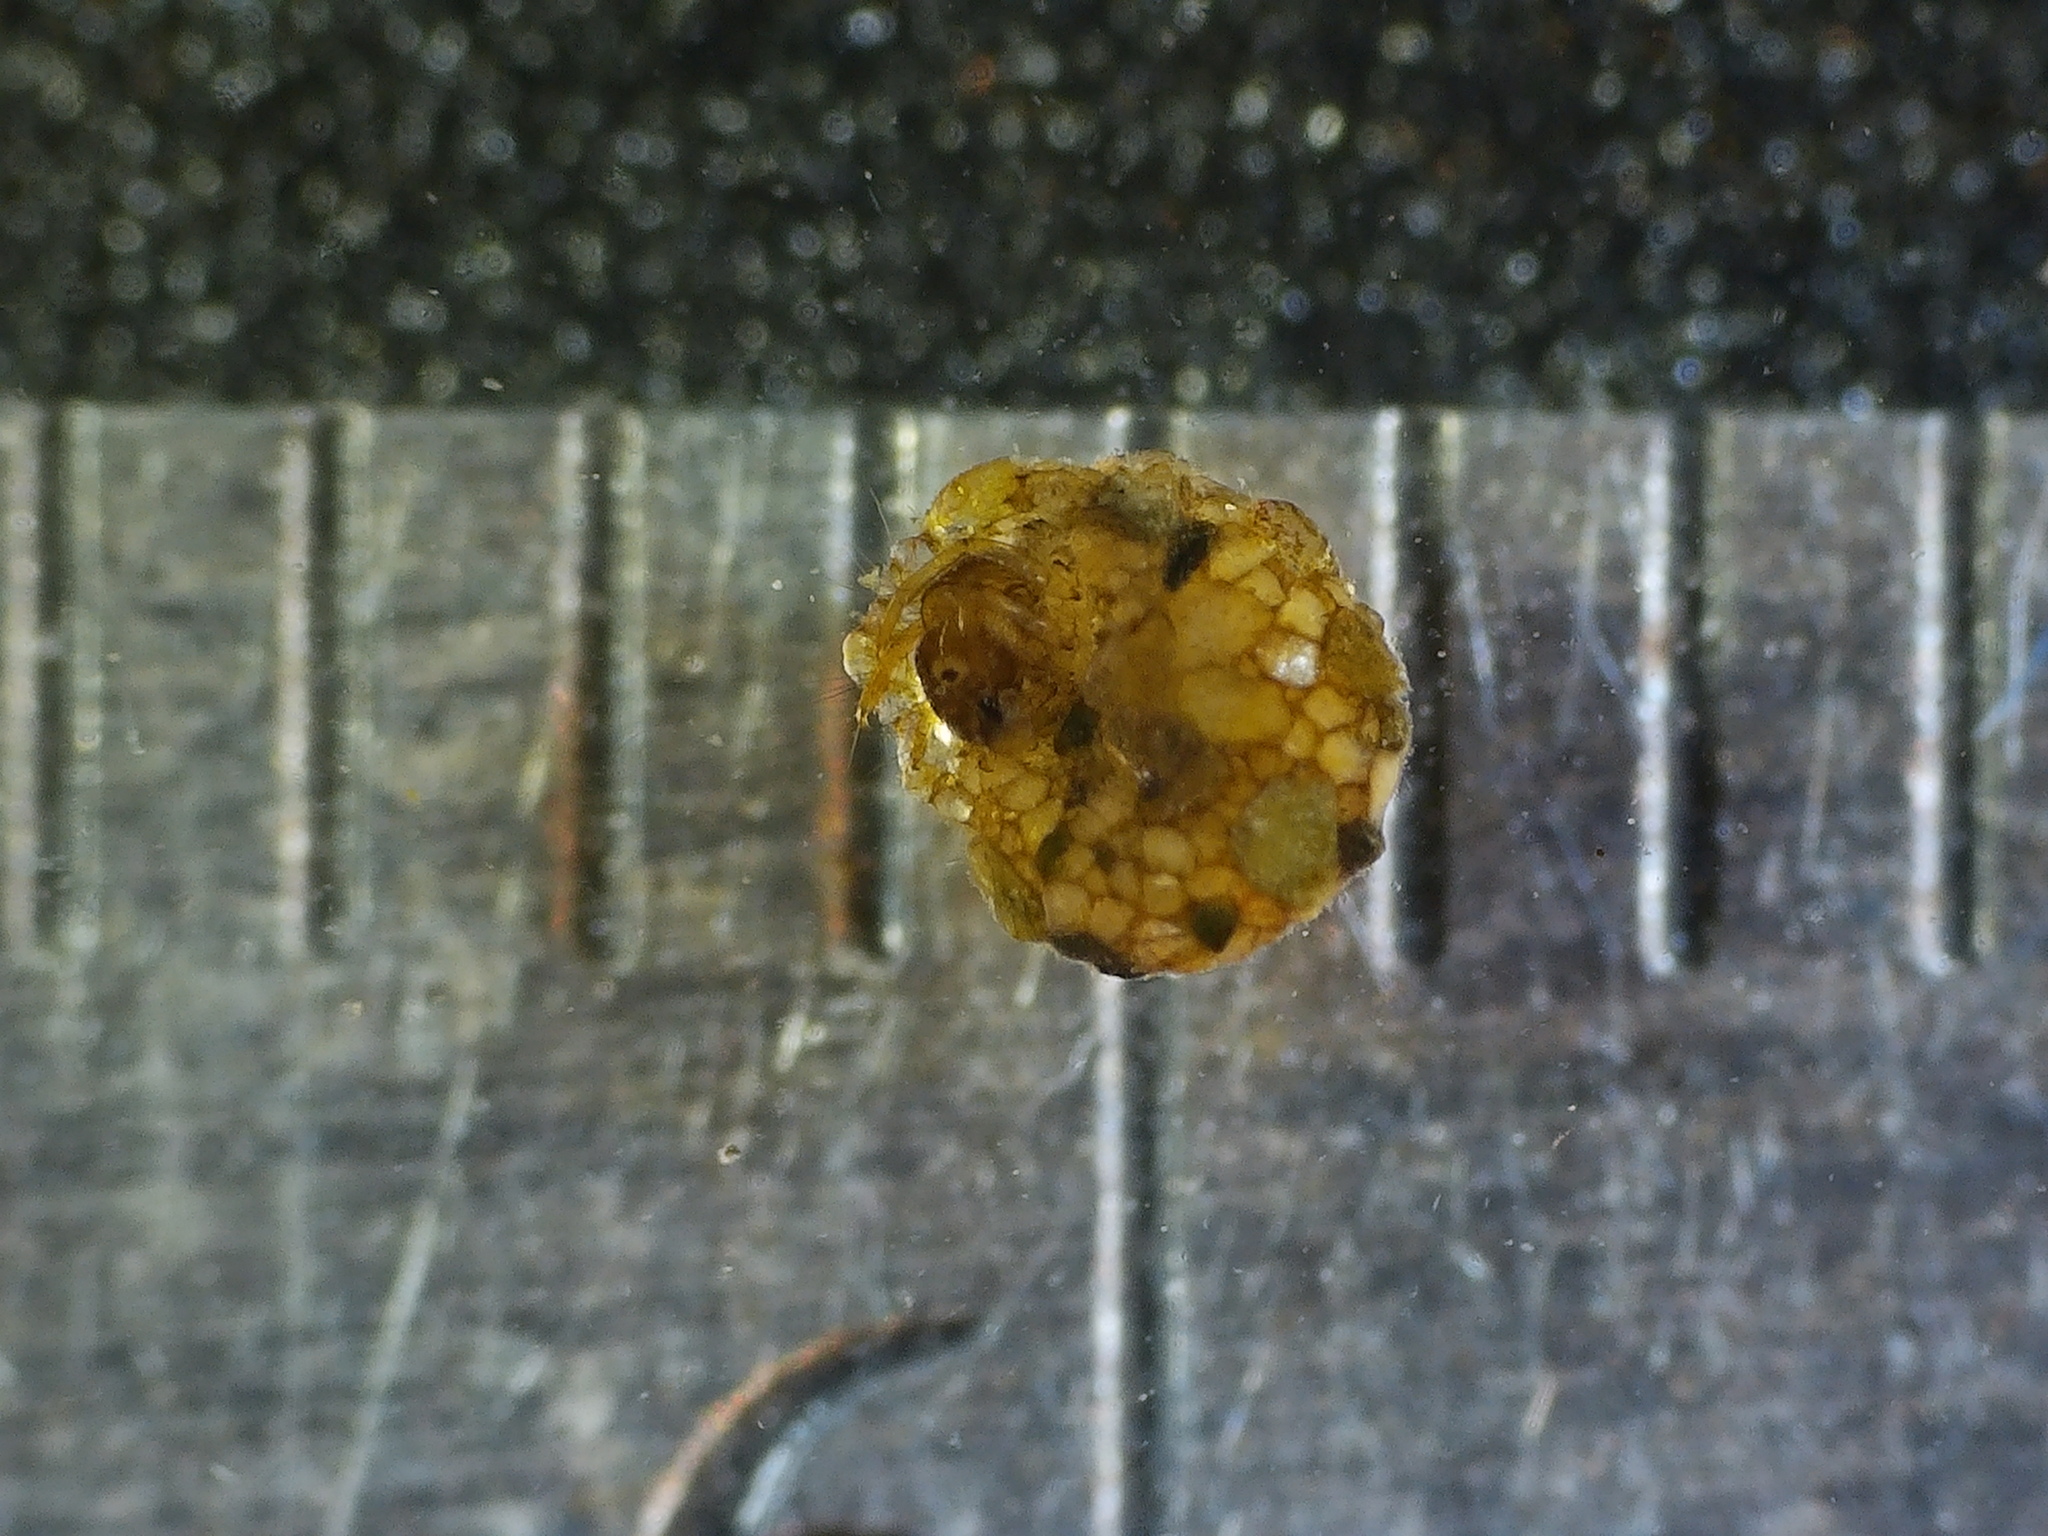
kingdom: Animalia
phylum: Arthropoda
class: Insecta
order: Trichoptera
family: Helicopsychidae
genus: Helicopsyche
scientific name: Helicopsyche borealis
